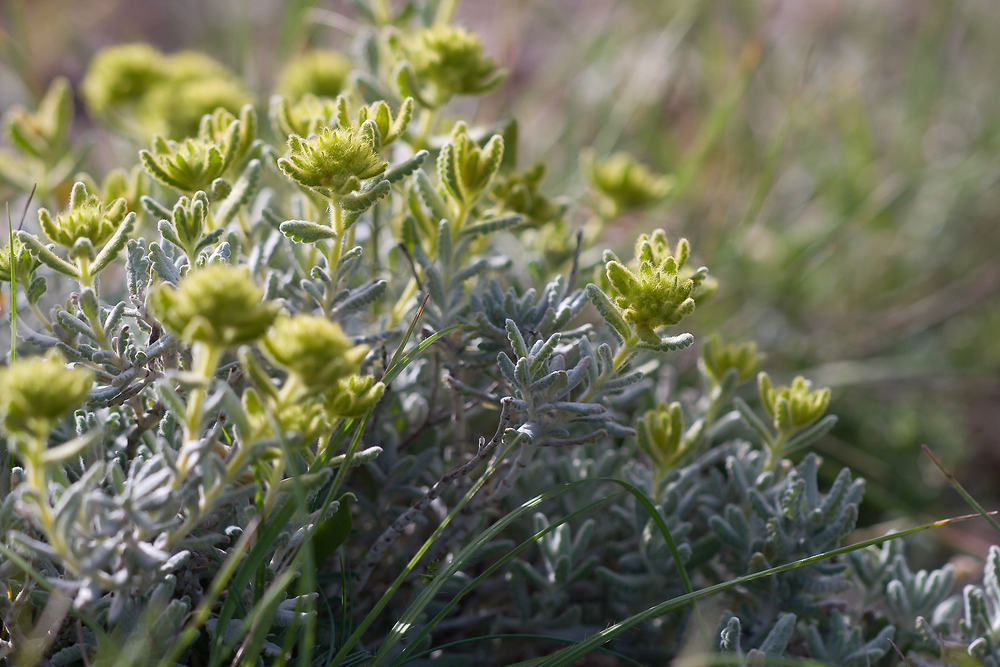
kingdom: Plantae
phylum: Tracheophyta
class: Magnoliopsida
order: Lamiales
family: Lamiaceae
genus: Teucrium
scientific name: Teucrium aureum
